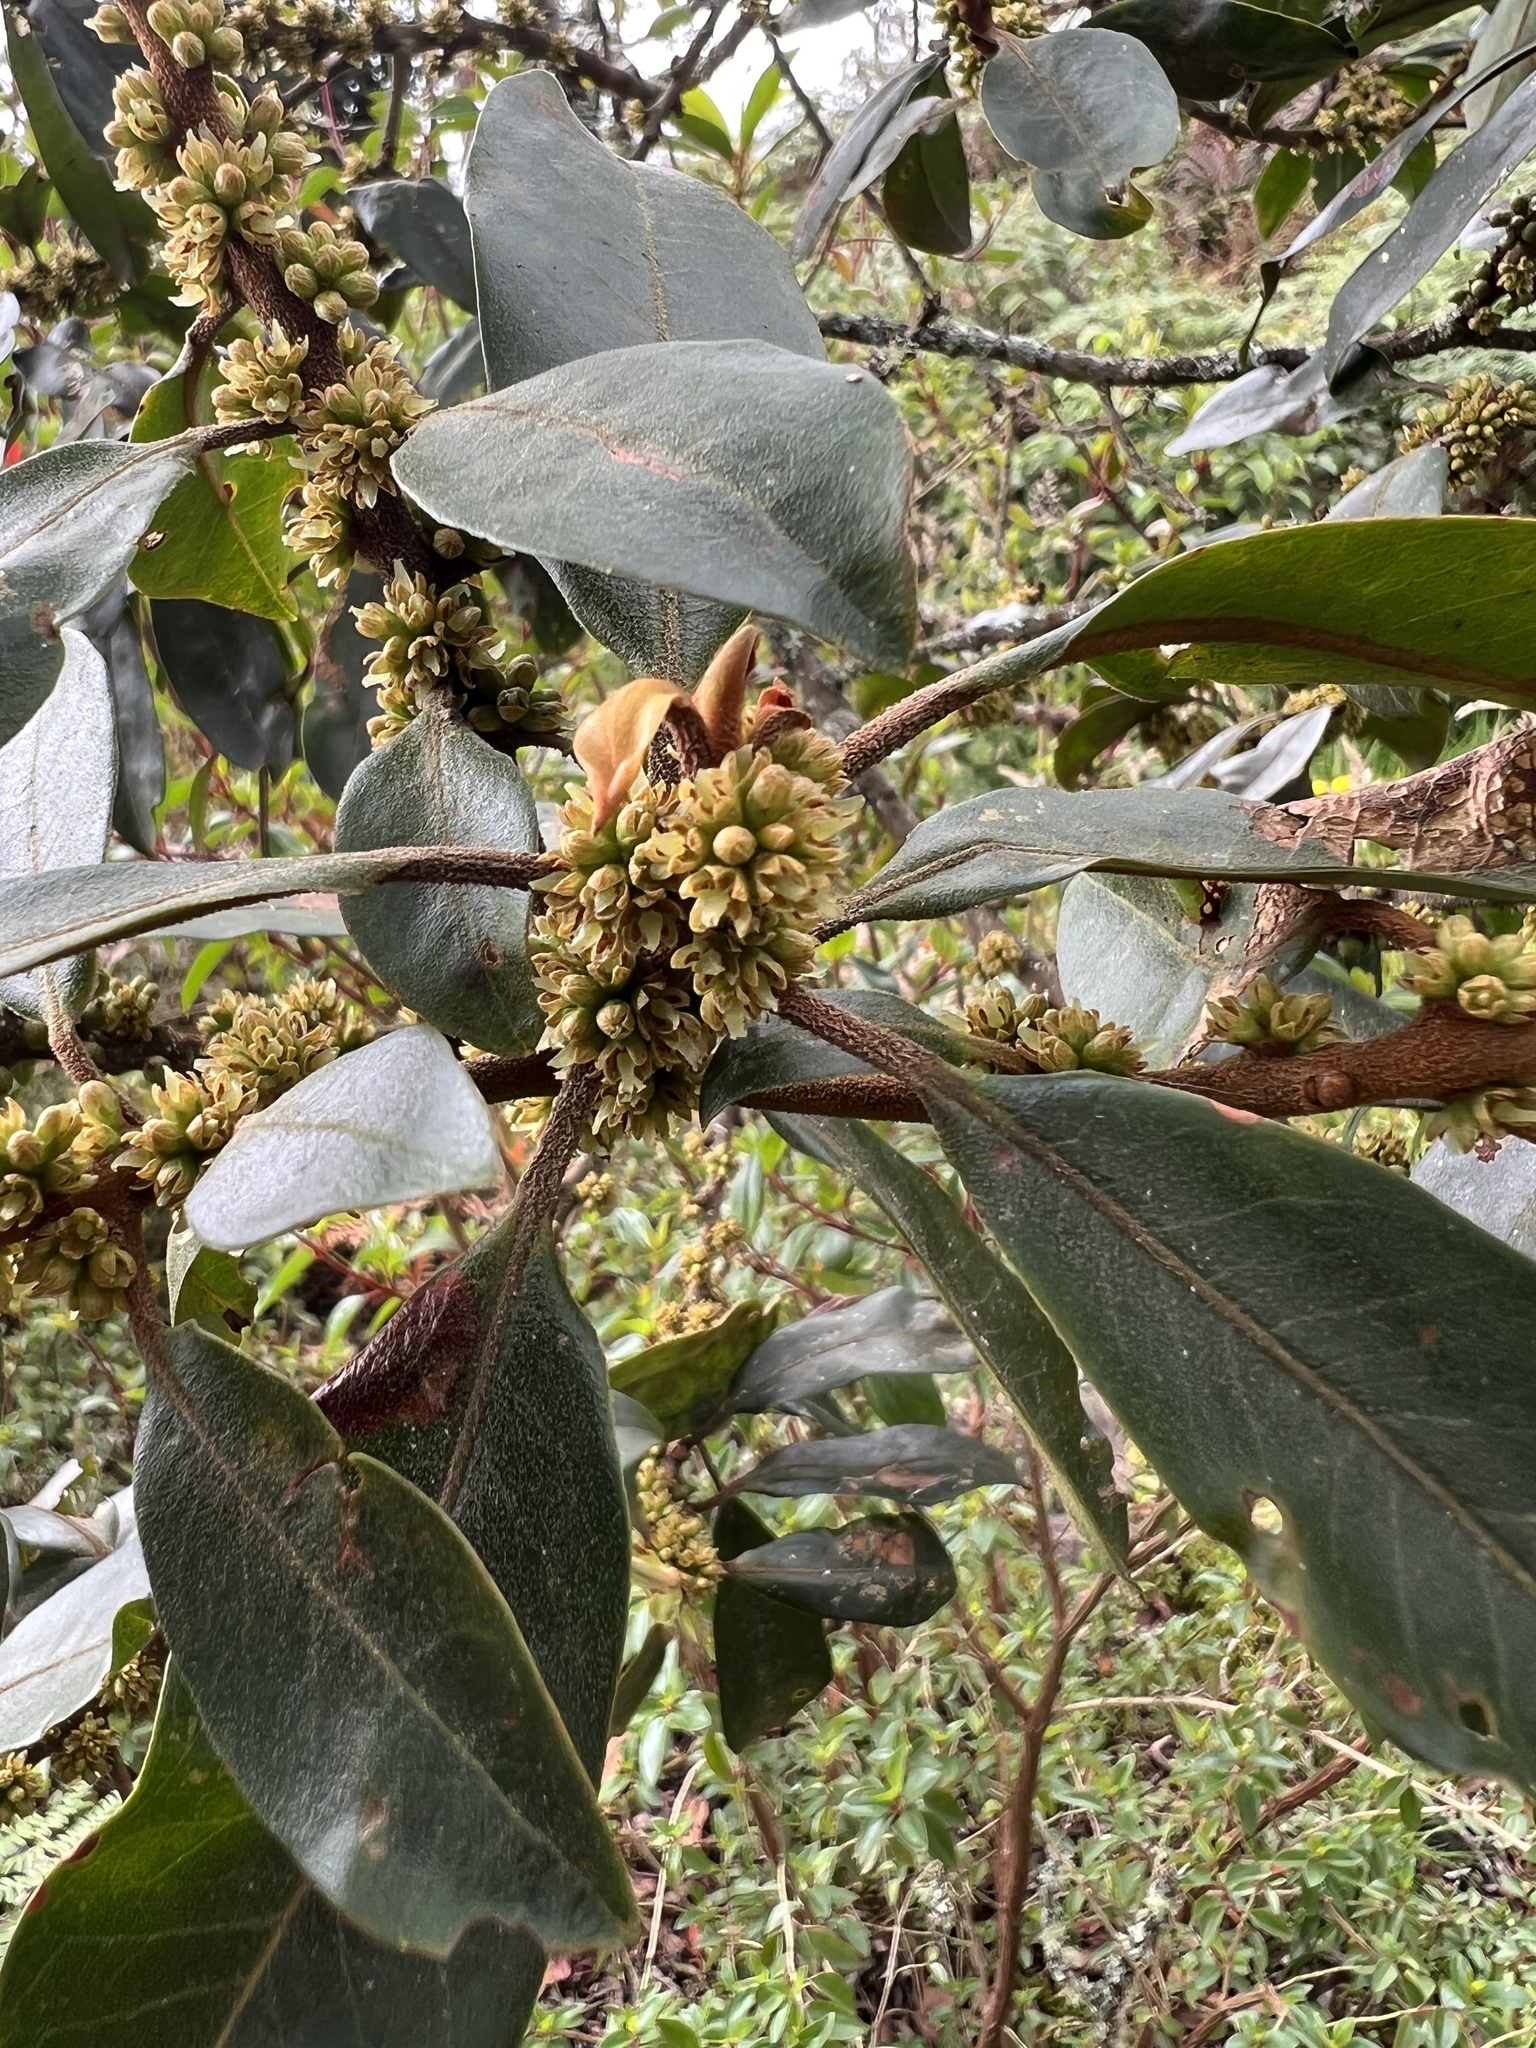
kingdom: Plantae
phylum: Tracheophyta
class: Magnoliopsida
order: Ericales
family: Primulaceae
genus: Myrsine
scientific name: Myrsine coriacea
